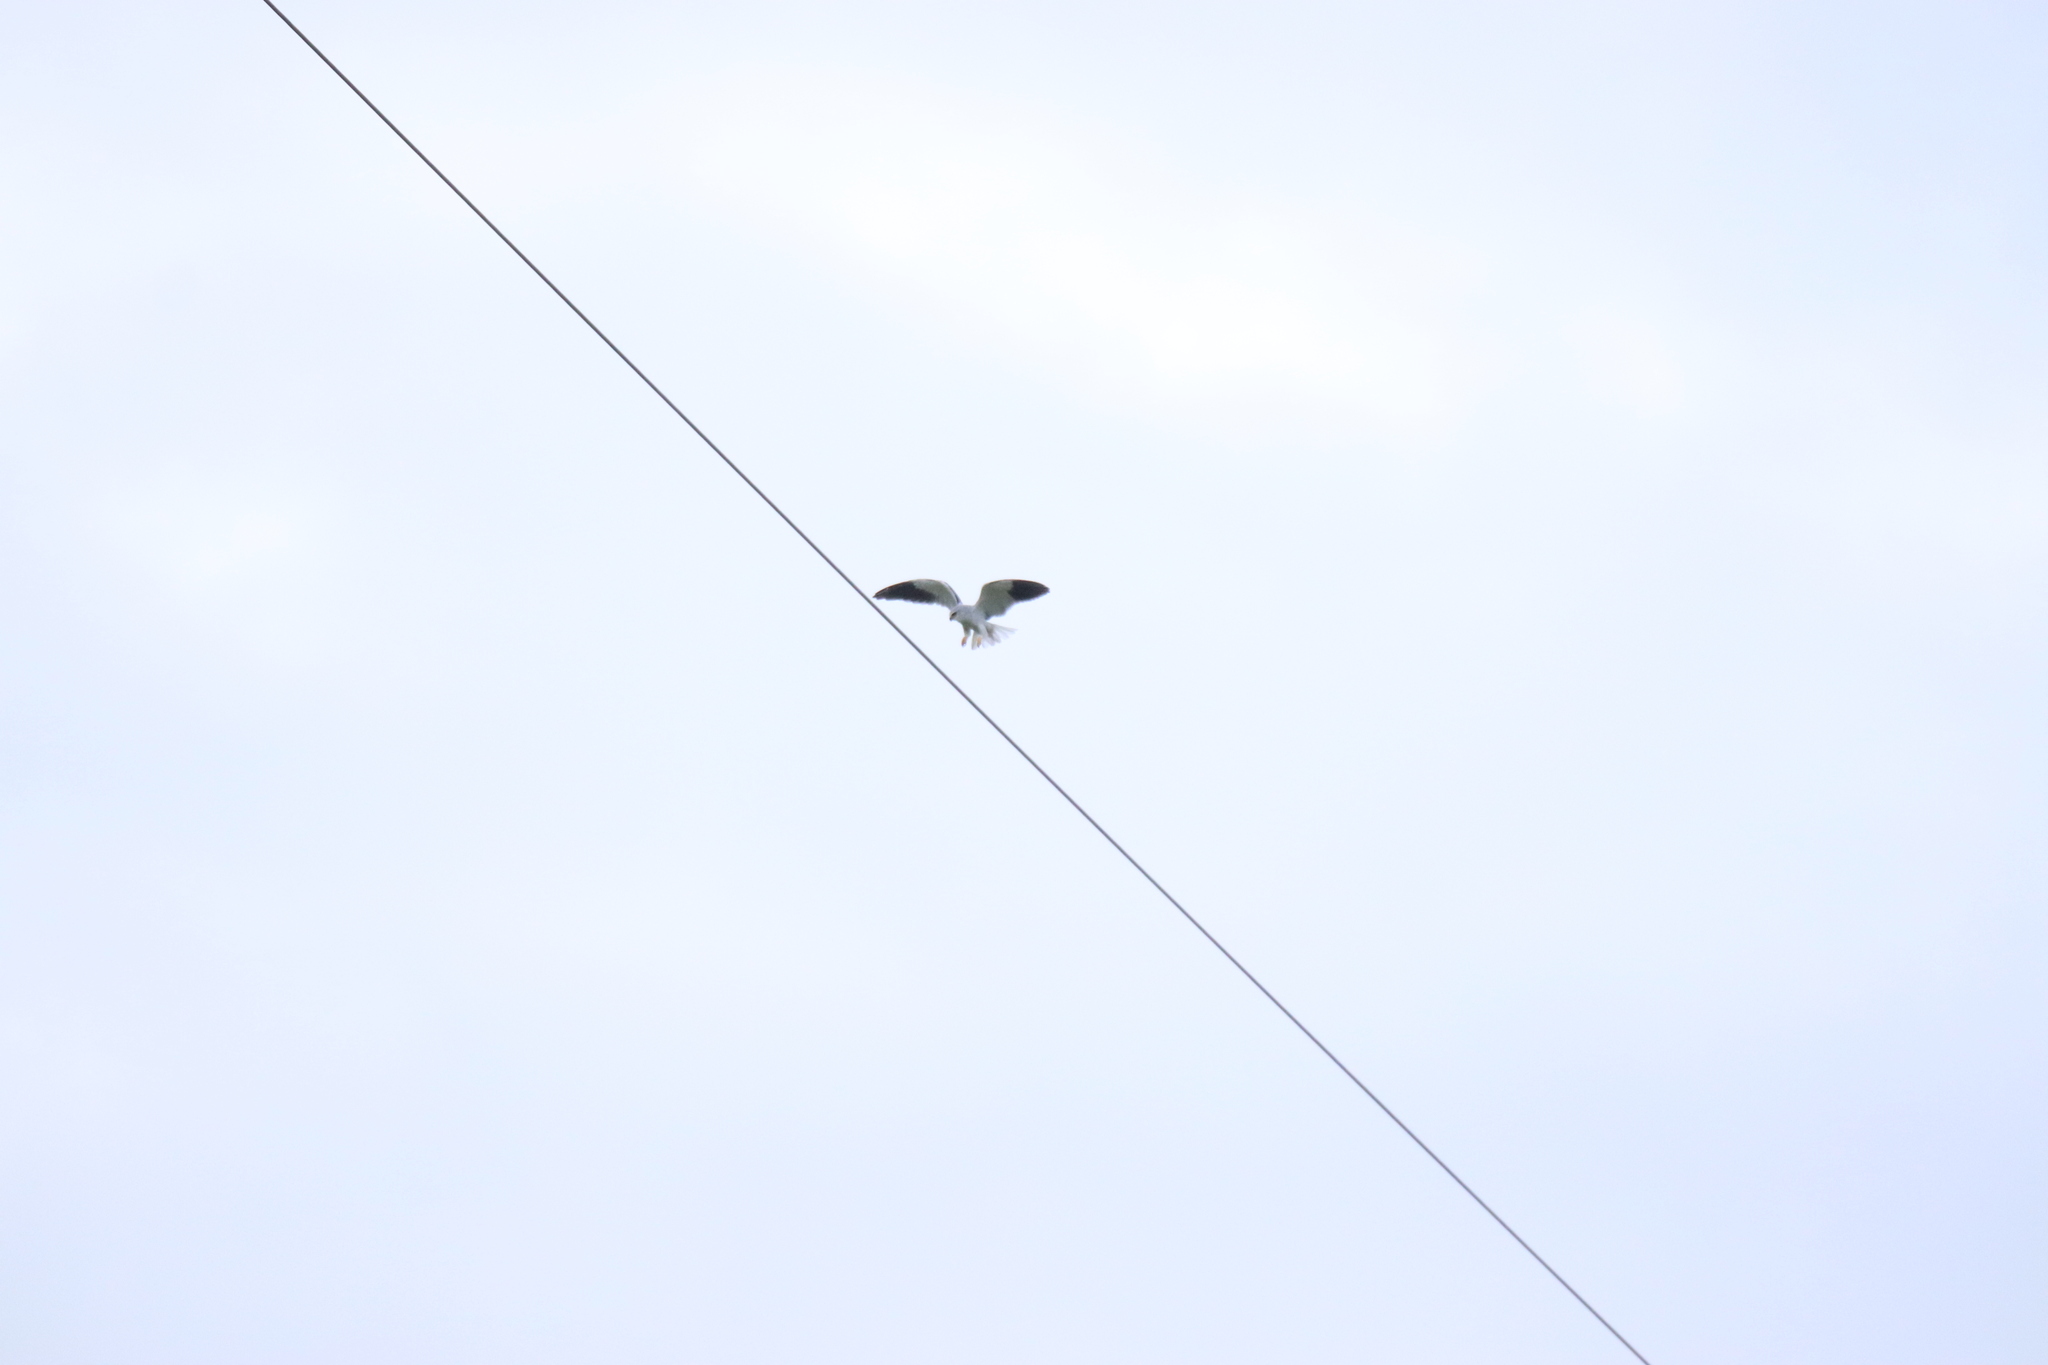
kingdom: Animalia
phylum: Chordata
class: Aves
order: Accipitriformes
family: Accipitridae
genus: Elanus
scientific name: Elanus caeruleus
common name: Black-winged kite
